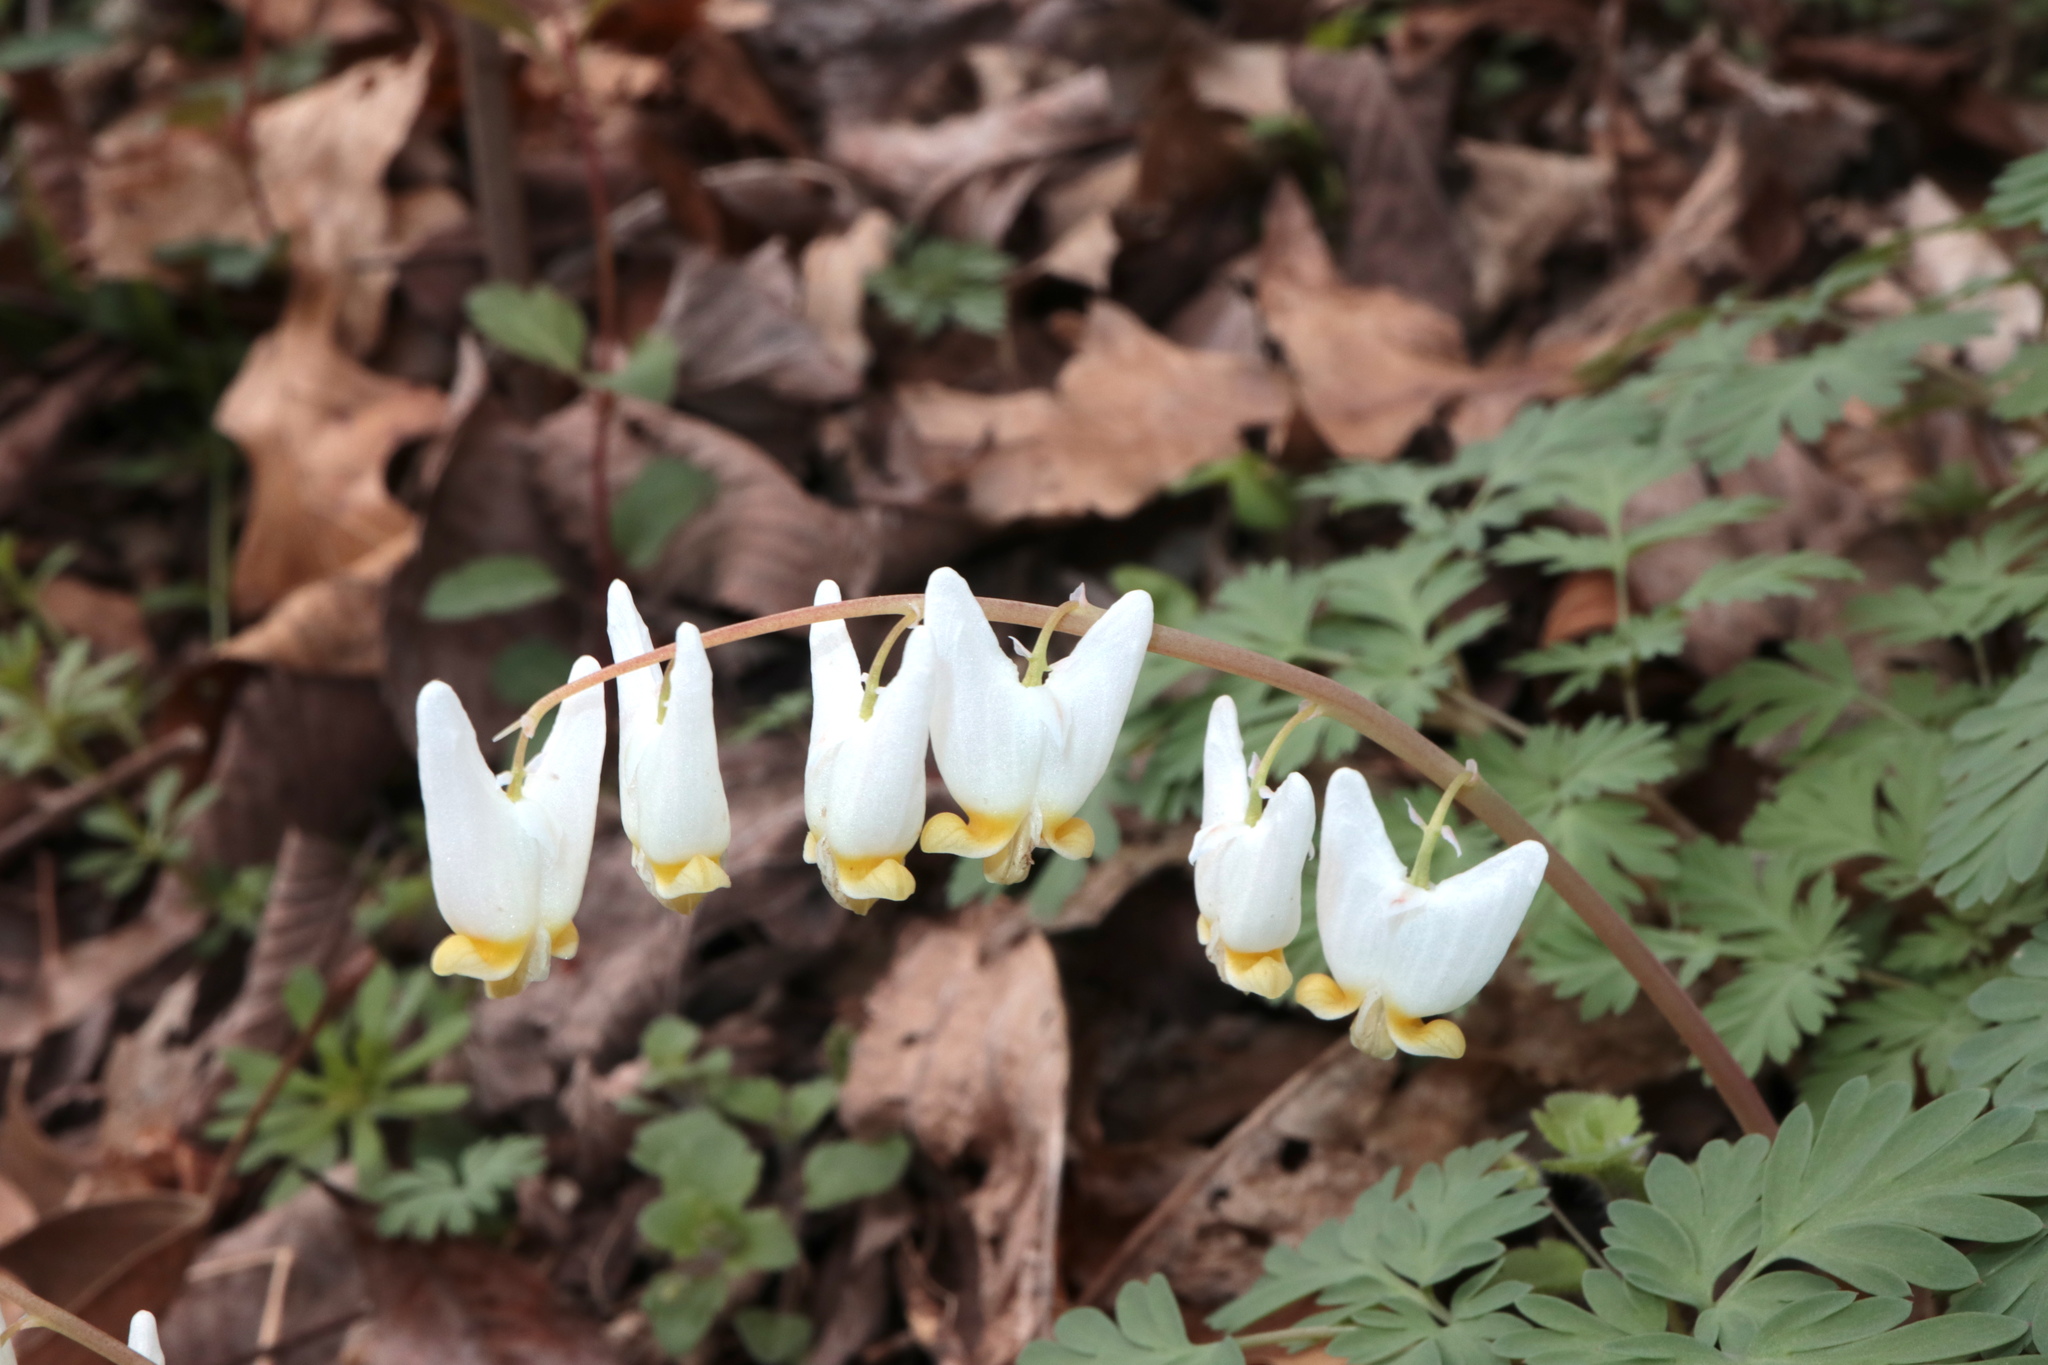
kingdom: Plantae
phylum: Tracheophyta
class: Magnoliopsida
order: Ranunculales
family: Papaveraceae
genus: Dicentra
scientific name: Dicentra cucullaria
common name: Dutchman's breeches
